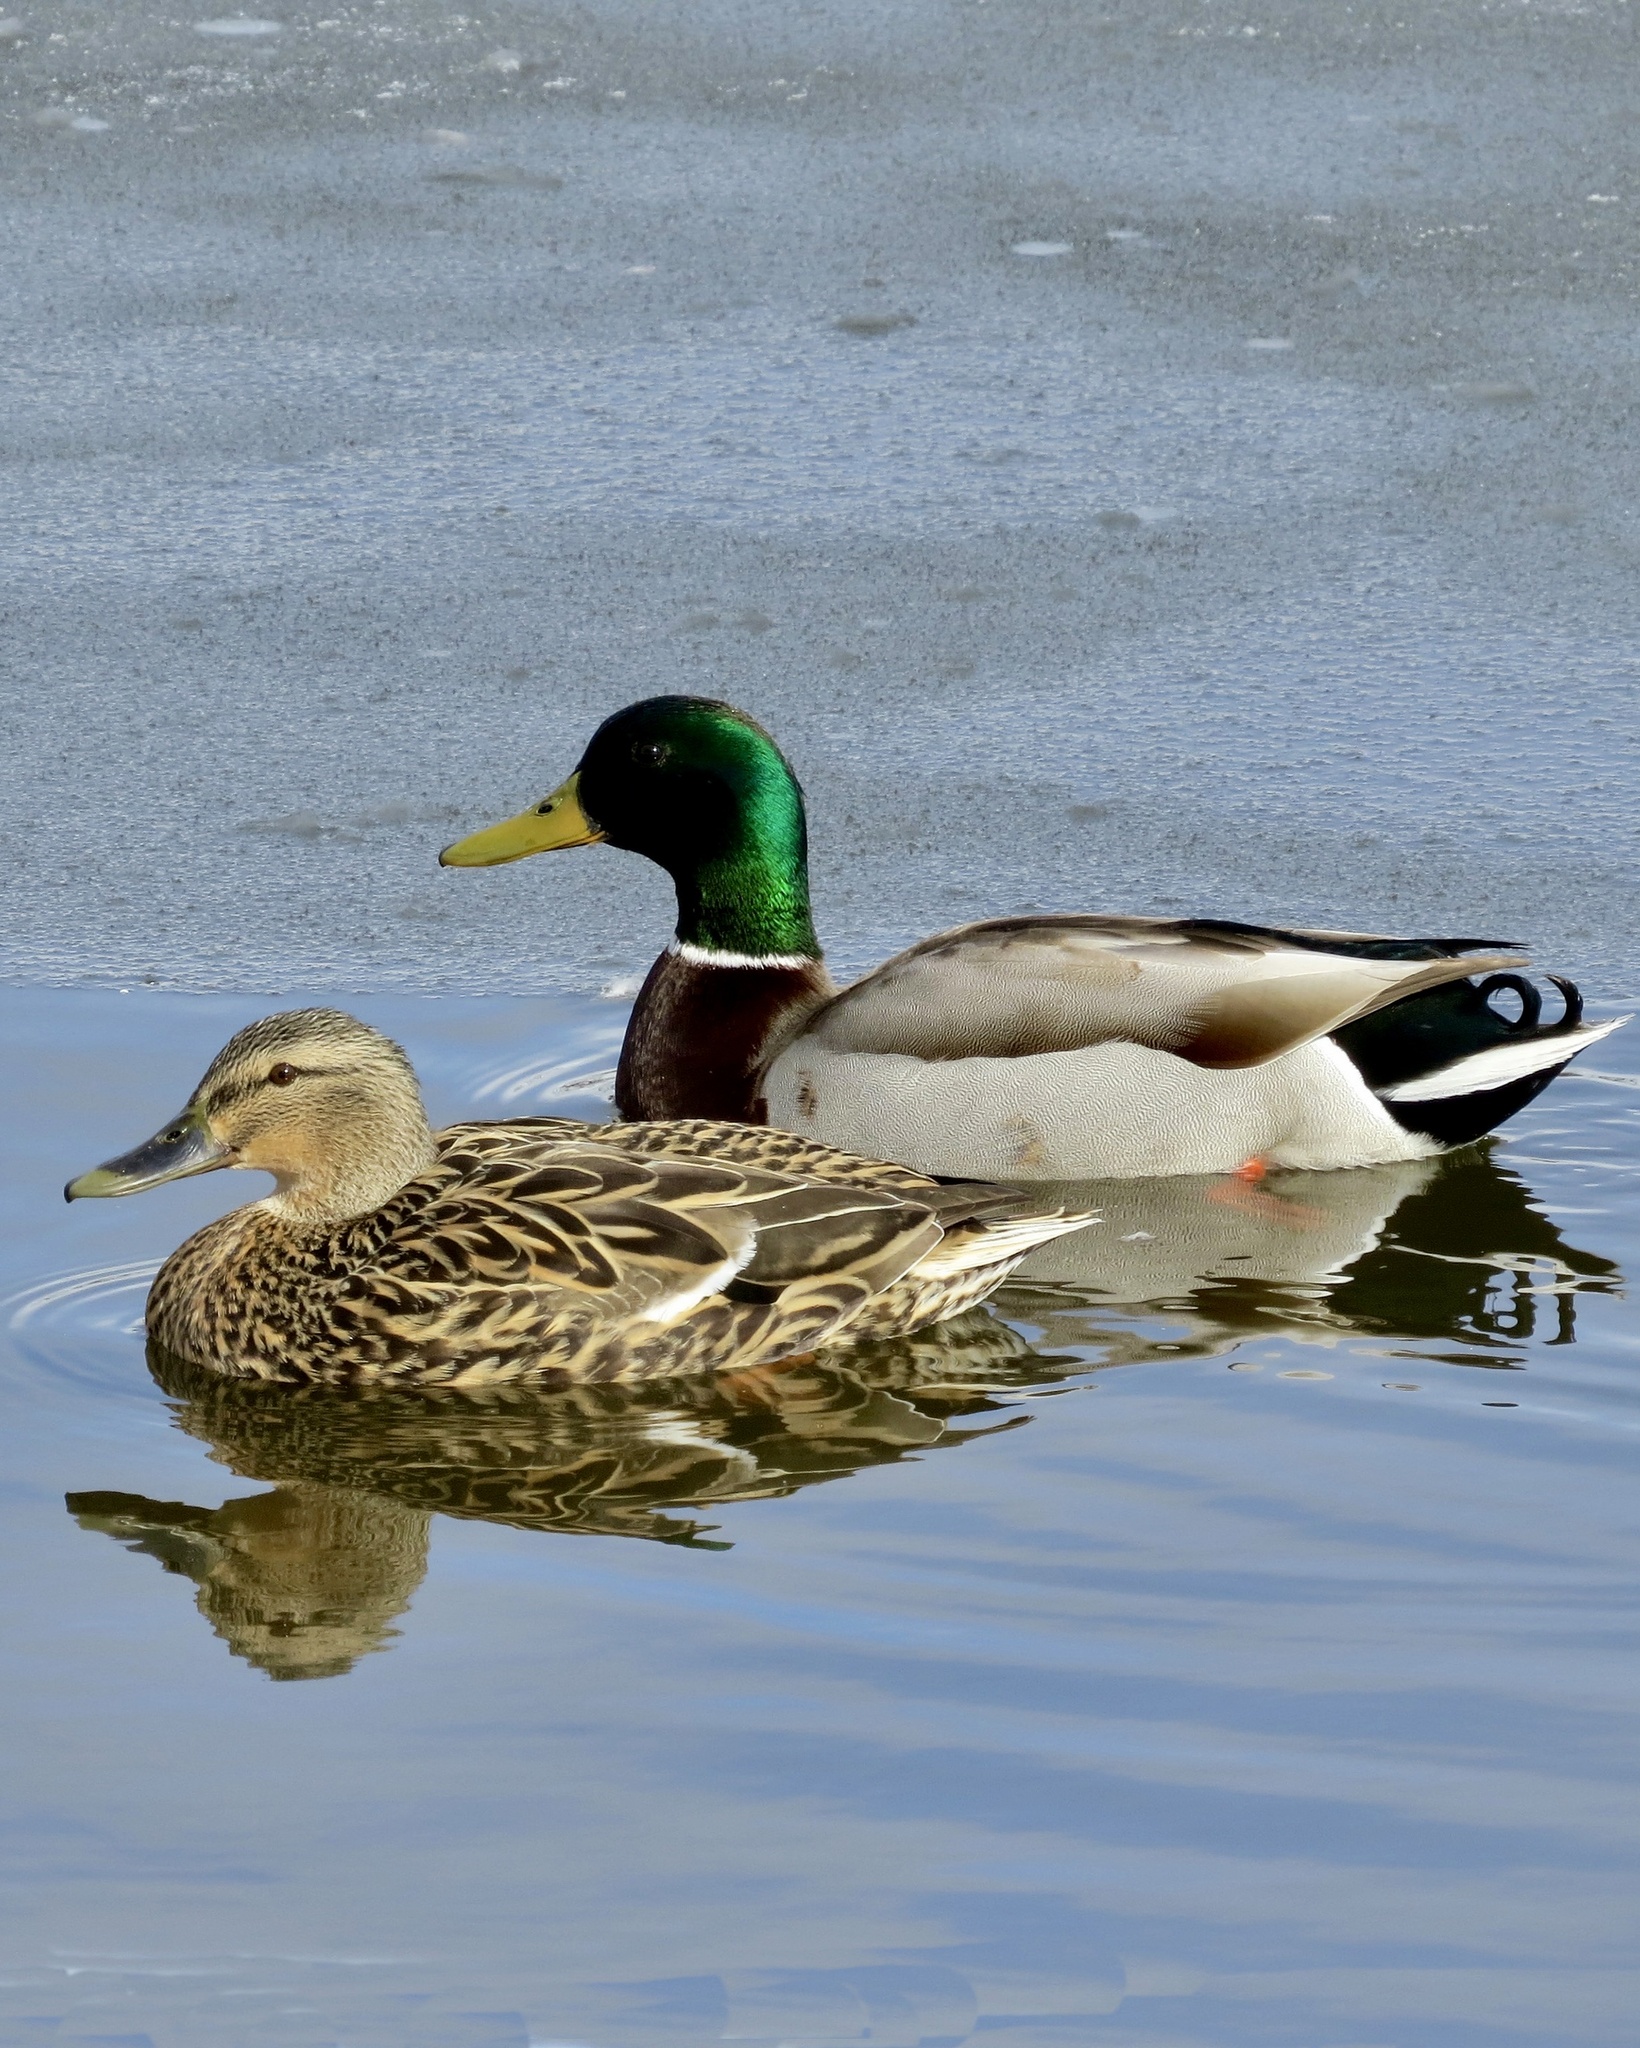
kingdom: Animalia
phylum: Chordata
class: Aves
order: Anseriformes
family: Anatidae
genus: Anas
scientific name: Anas platyrhynchos
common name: Mallard
